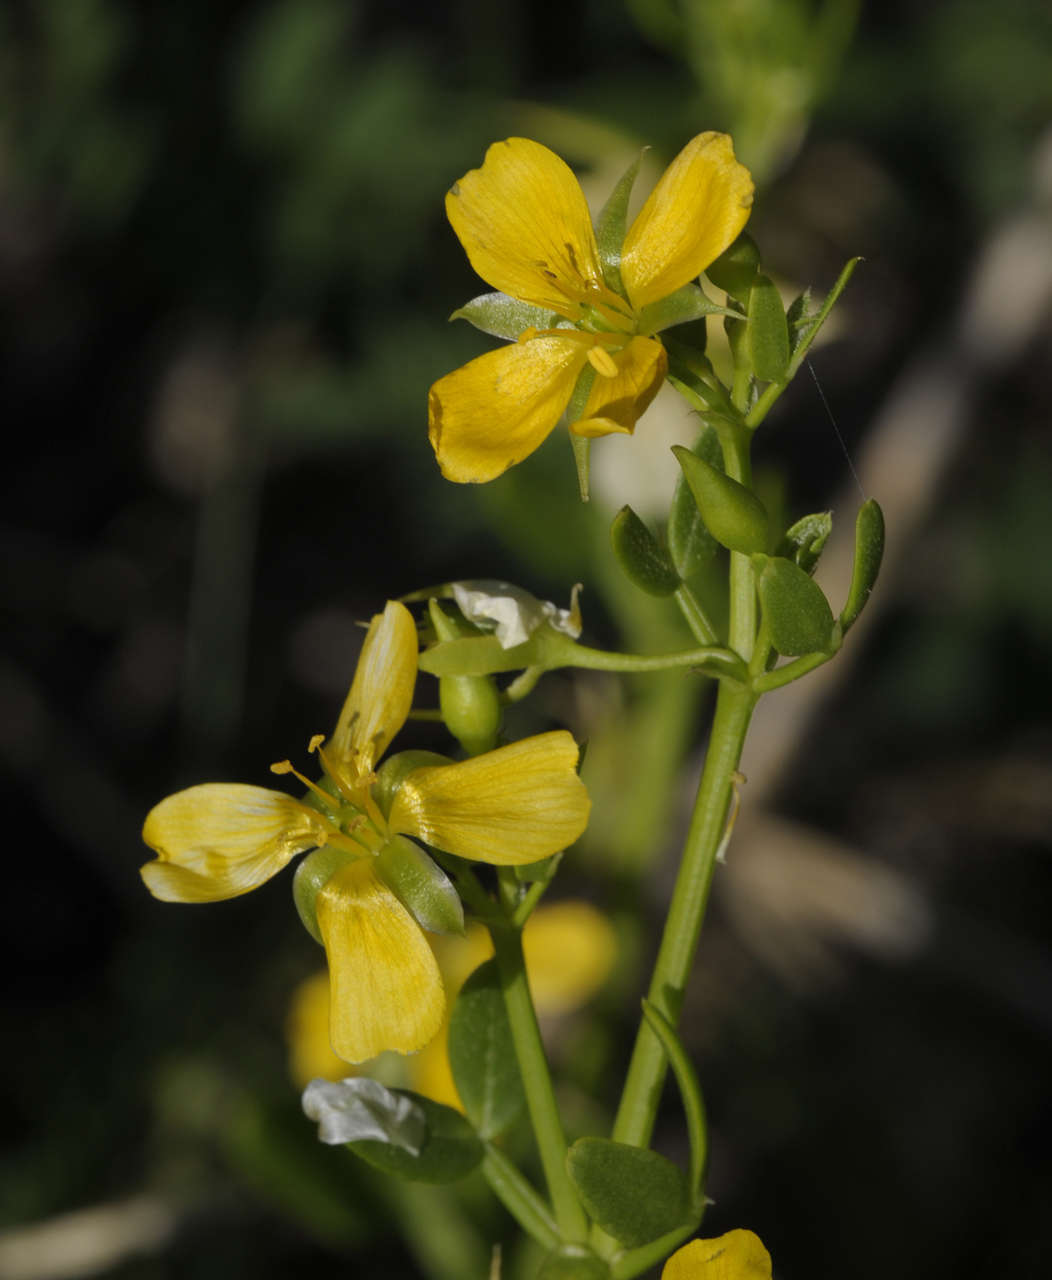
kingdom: Plantae
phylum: Tracheophyta
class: Magnoliopsida
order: Zygophyllales
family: Zygophyllaceae
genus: Roepera
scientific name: Roepera billardieri
